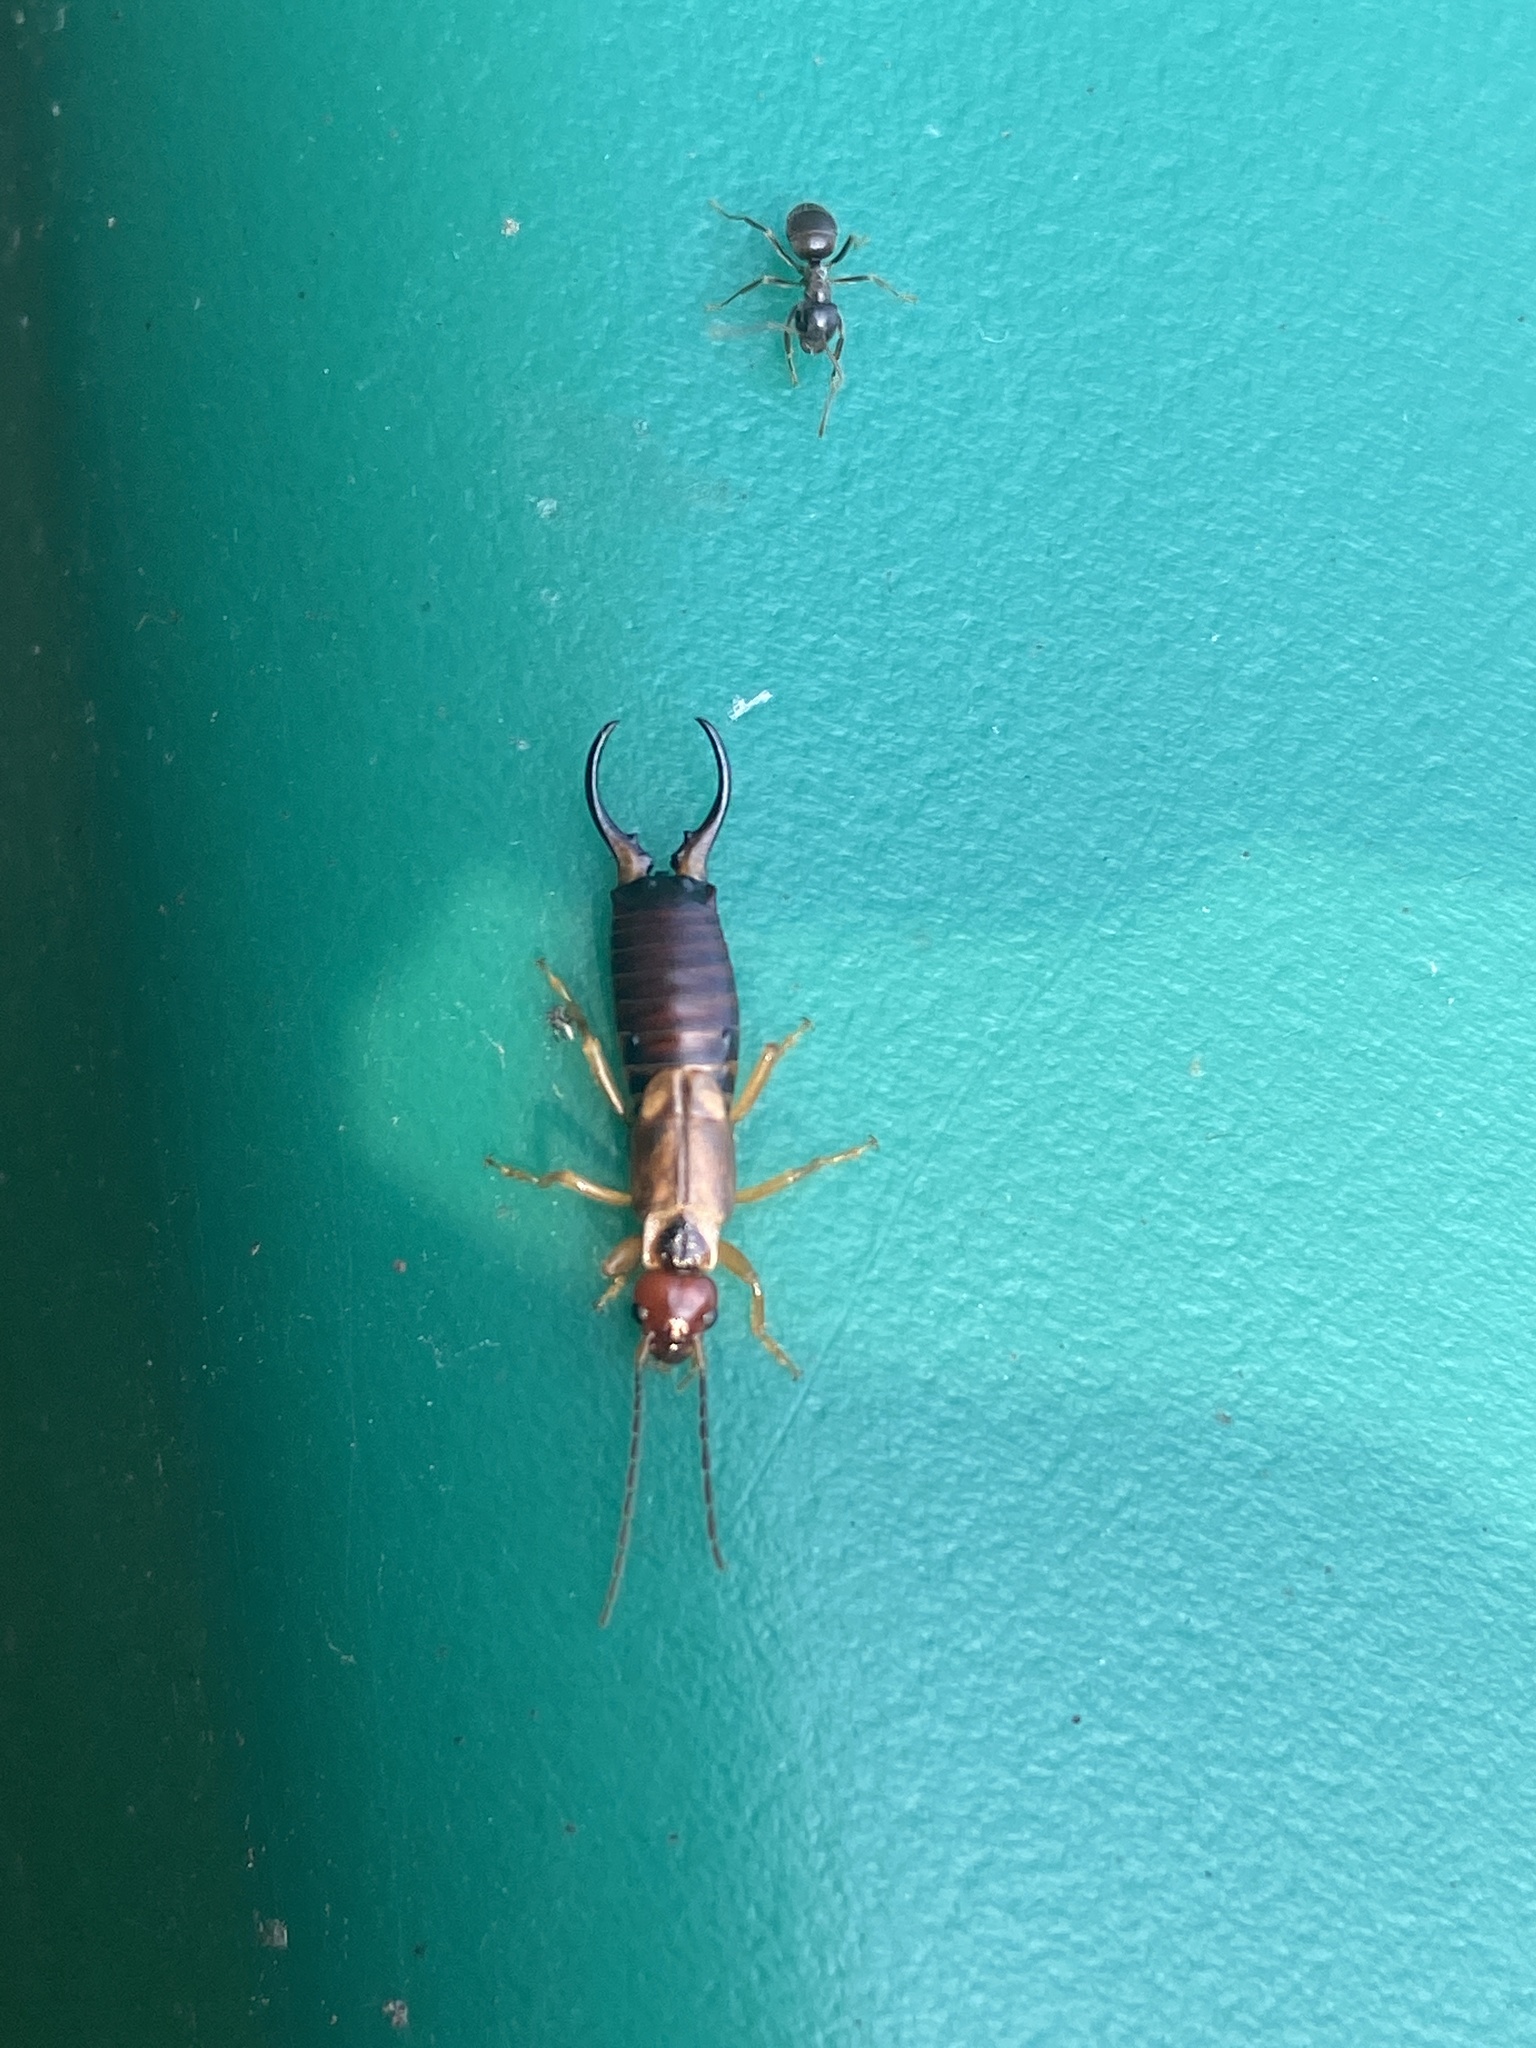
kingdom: Animalia
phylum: Arthropoda
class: Insecta
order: Dermaptera
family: Forficulidae
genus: Forficula
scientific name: Forficula
